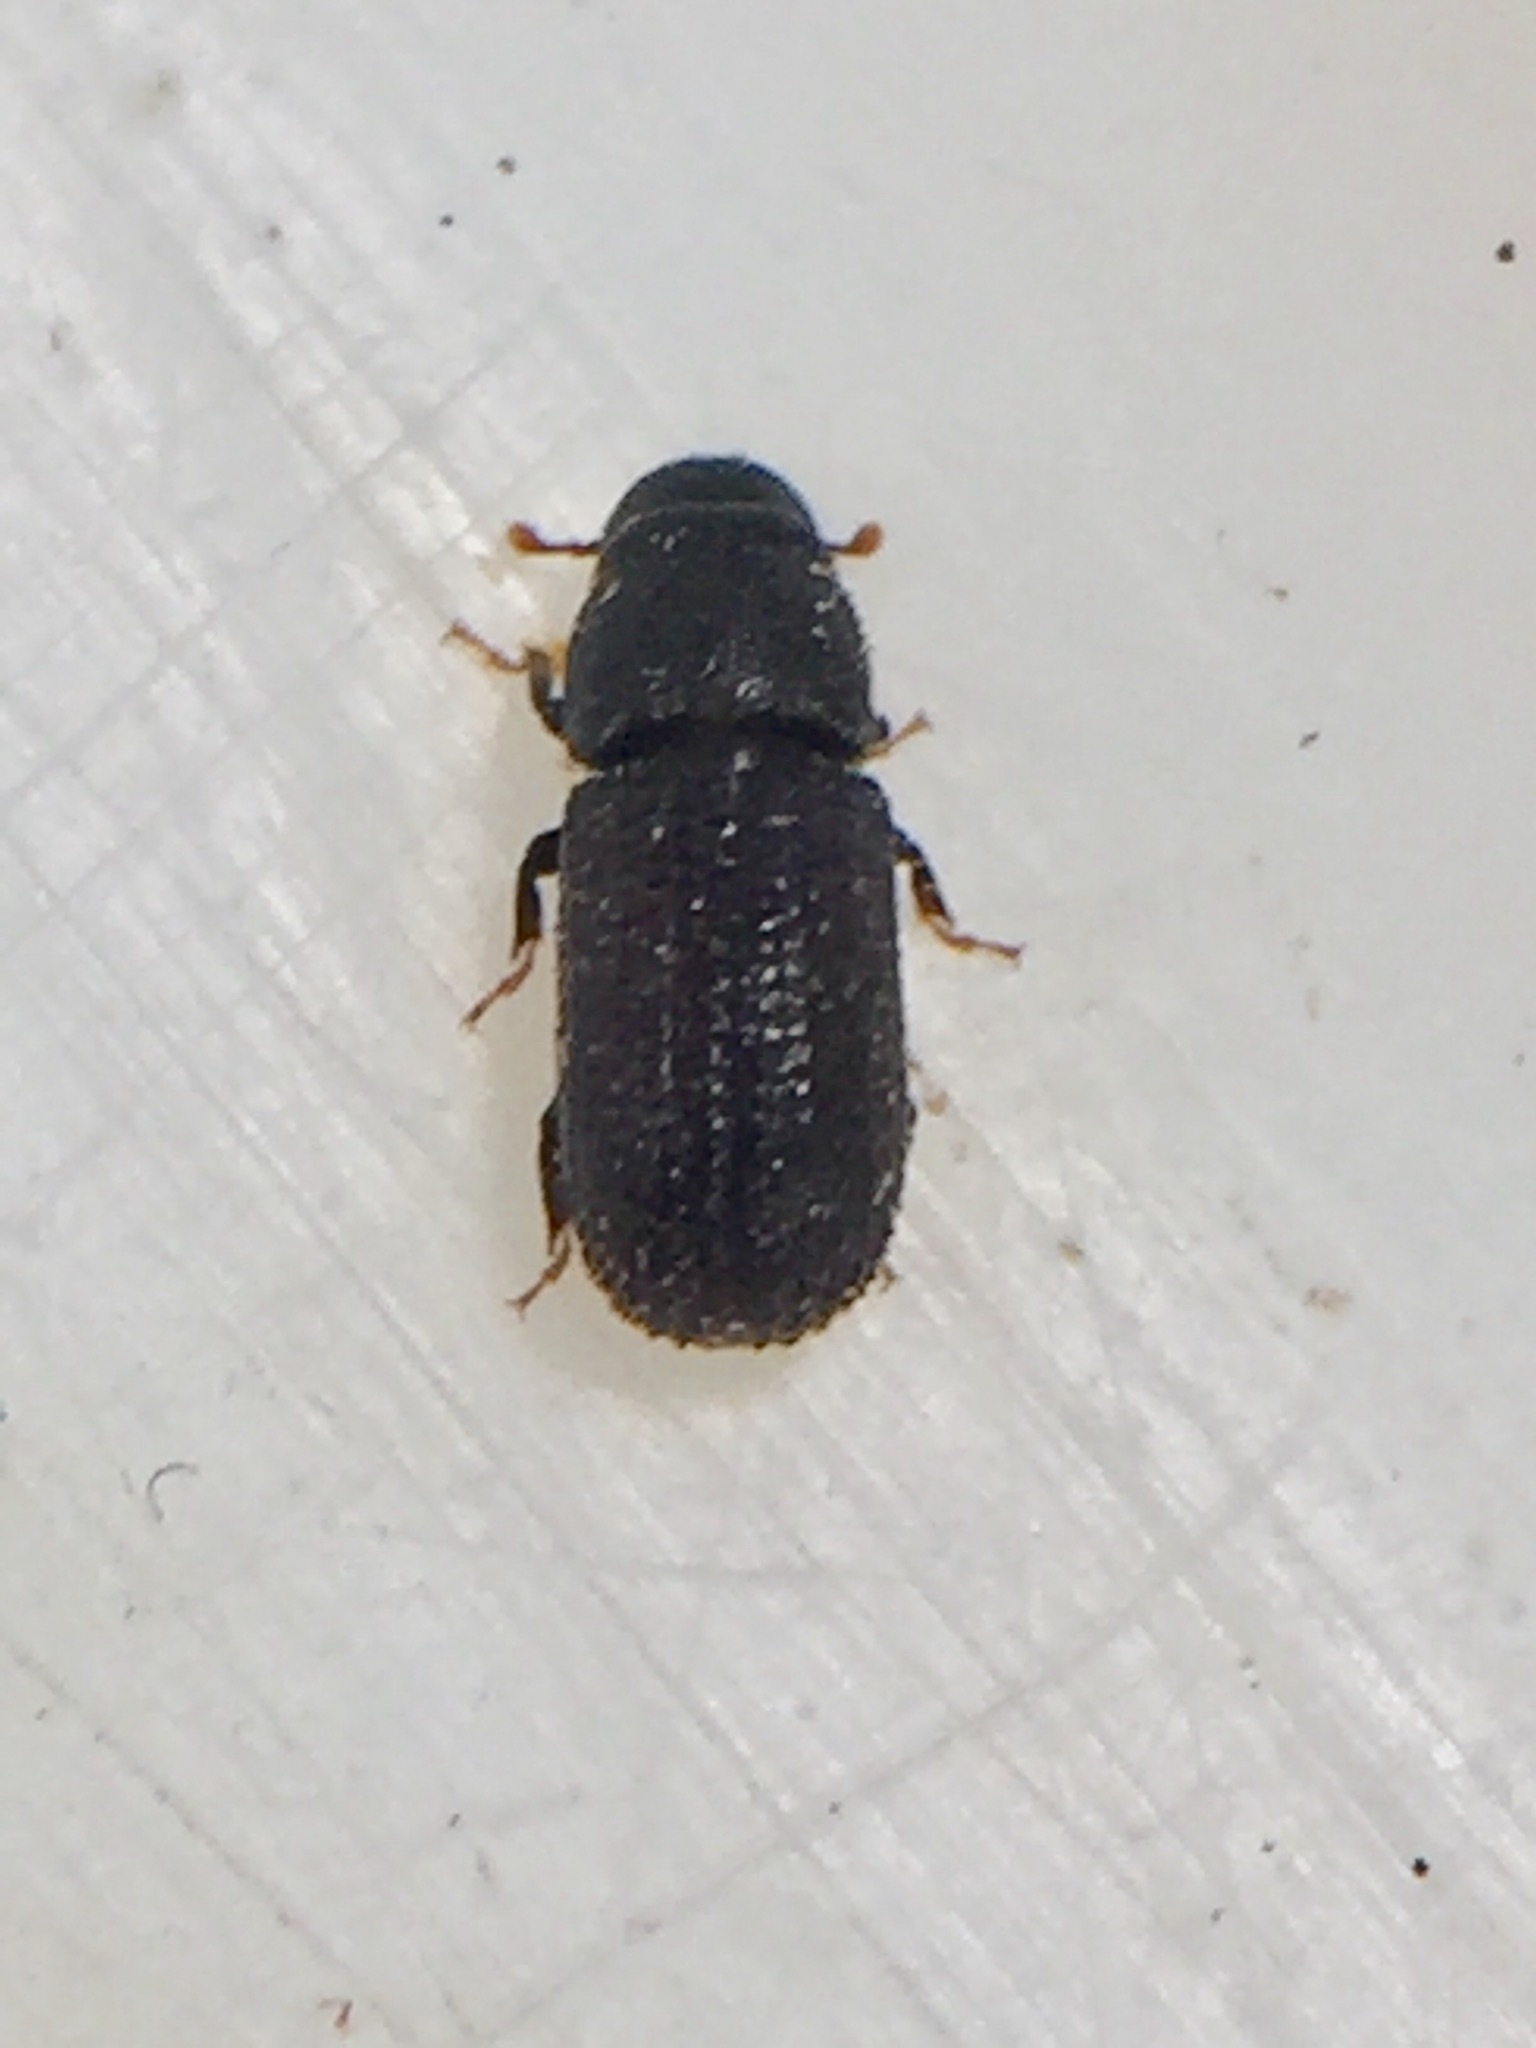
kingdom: Animalia
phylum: Arthropoda
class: Insecta
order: Coleoptera
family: Curculionidae
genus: Stenoscelis
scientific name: Stenoscelis hylastoides
